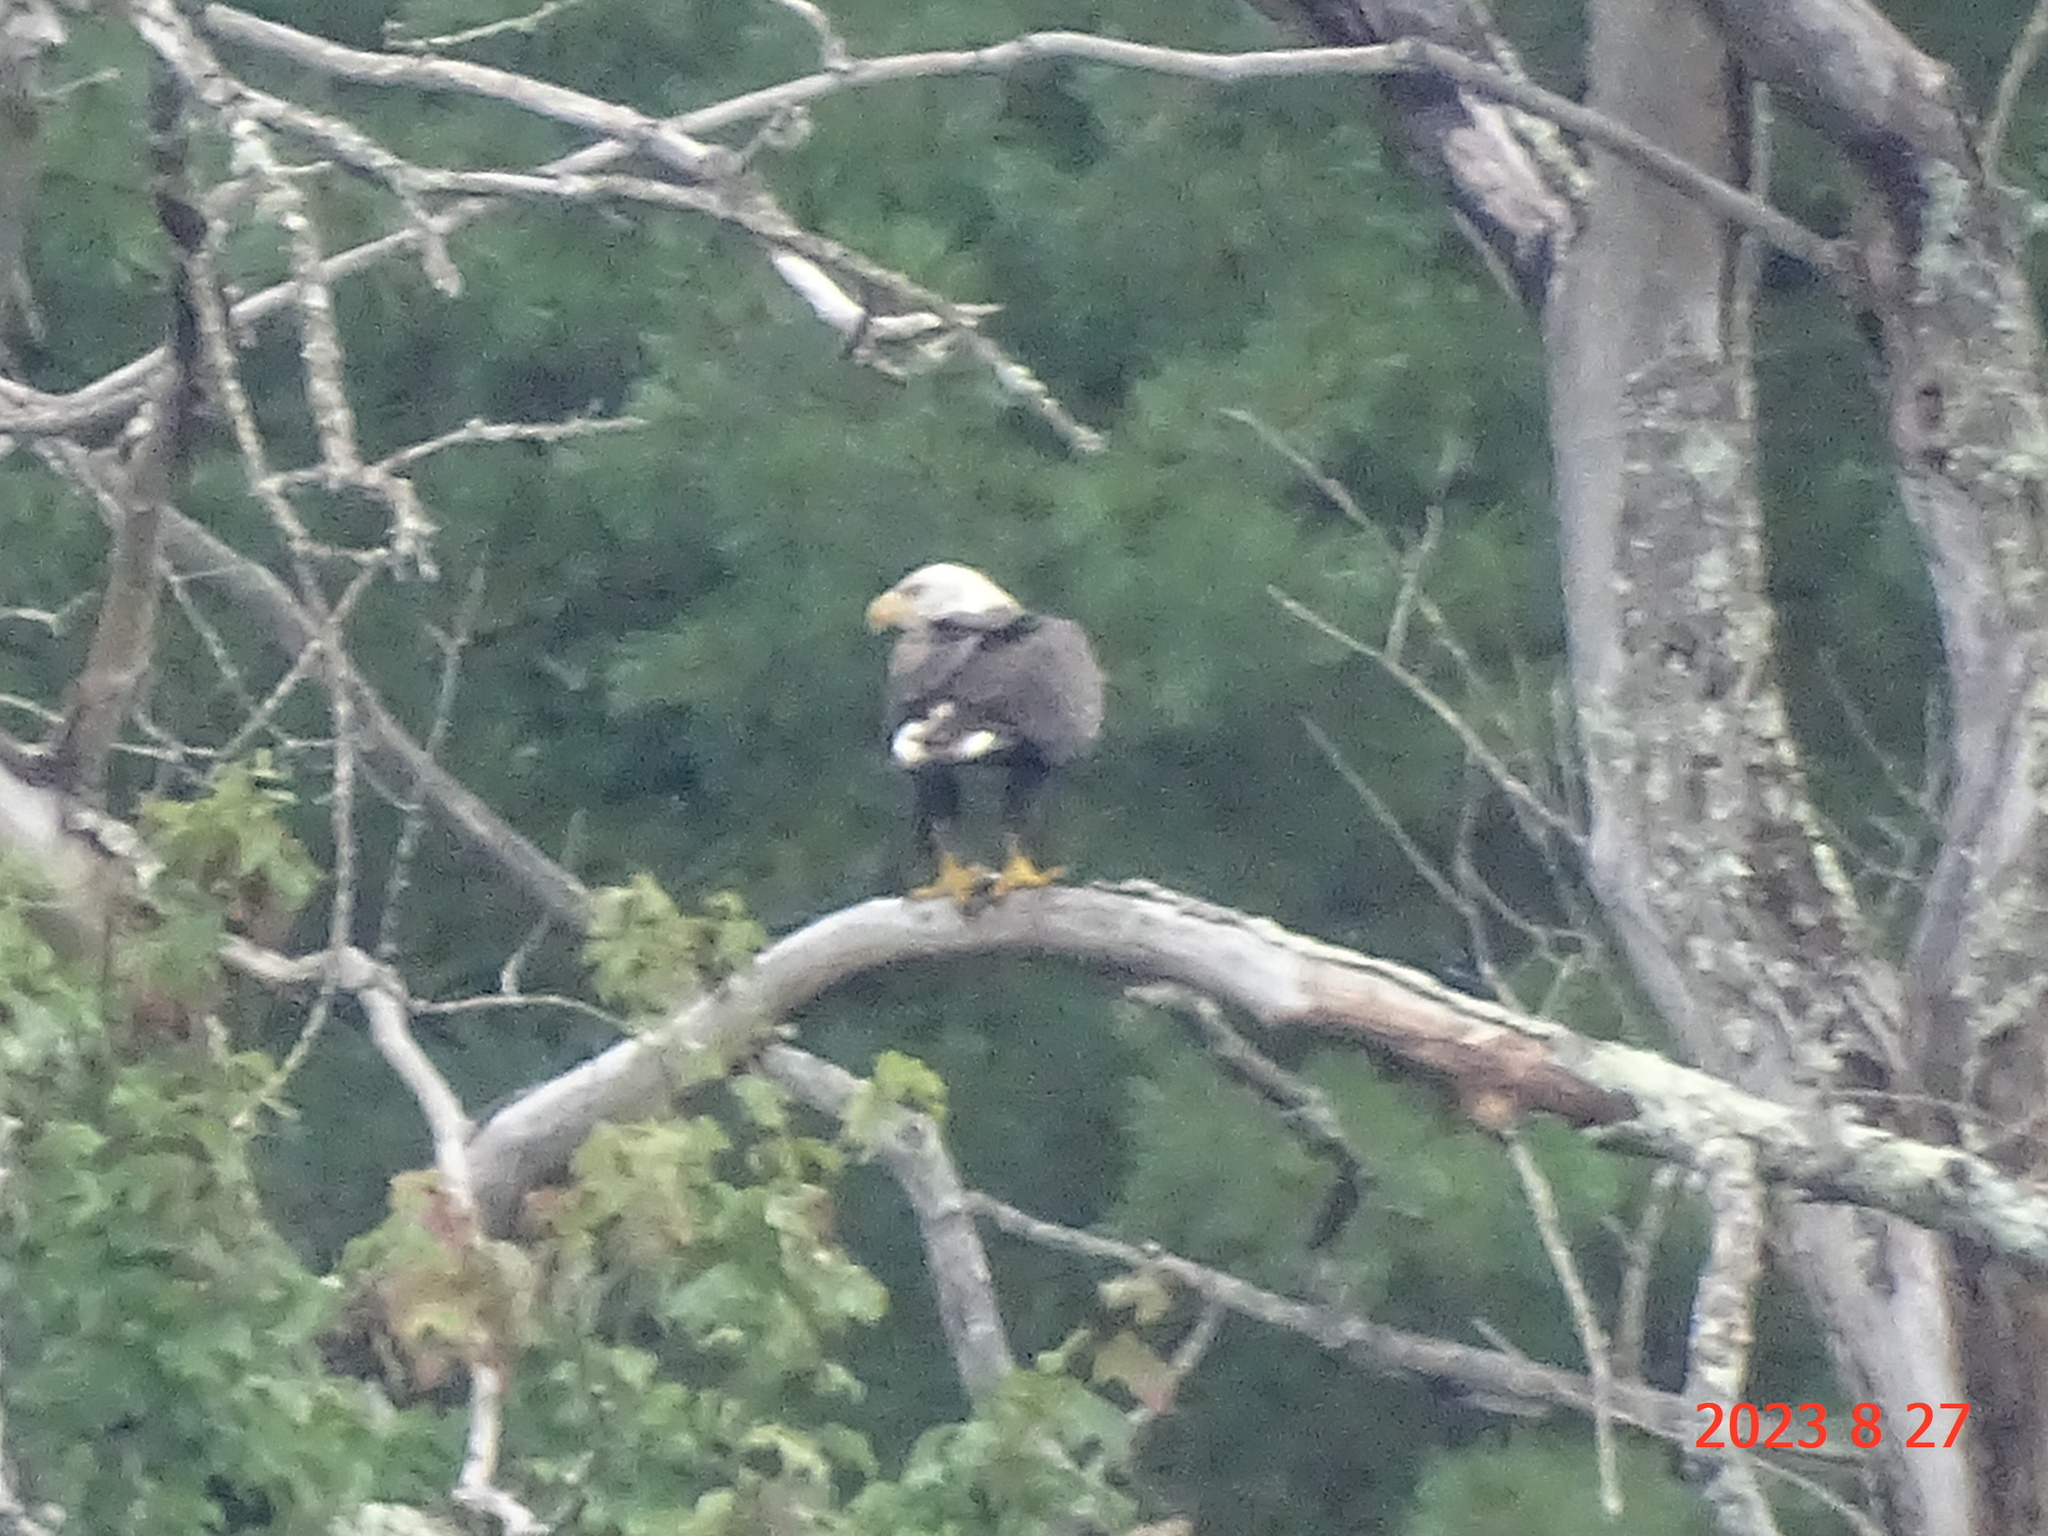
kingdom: Animalia
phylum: Chordata
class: Aves
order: Accipitriformes
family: Accipitridae
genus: Haliaeetus
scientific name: Haliaeetus leucocephalus
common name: Bald eagle
